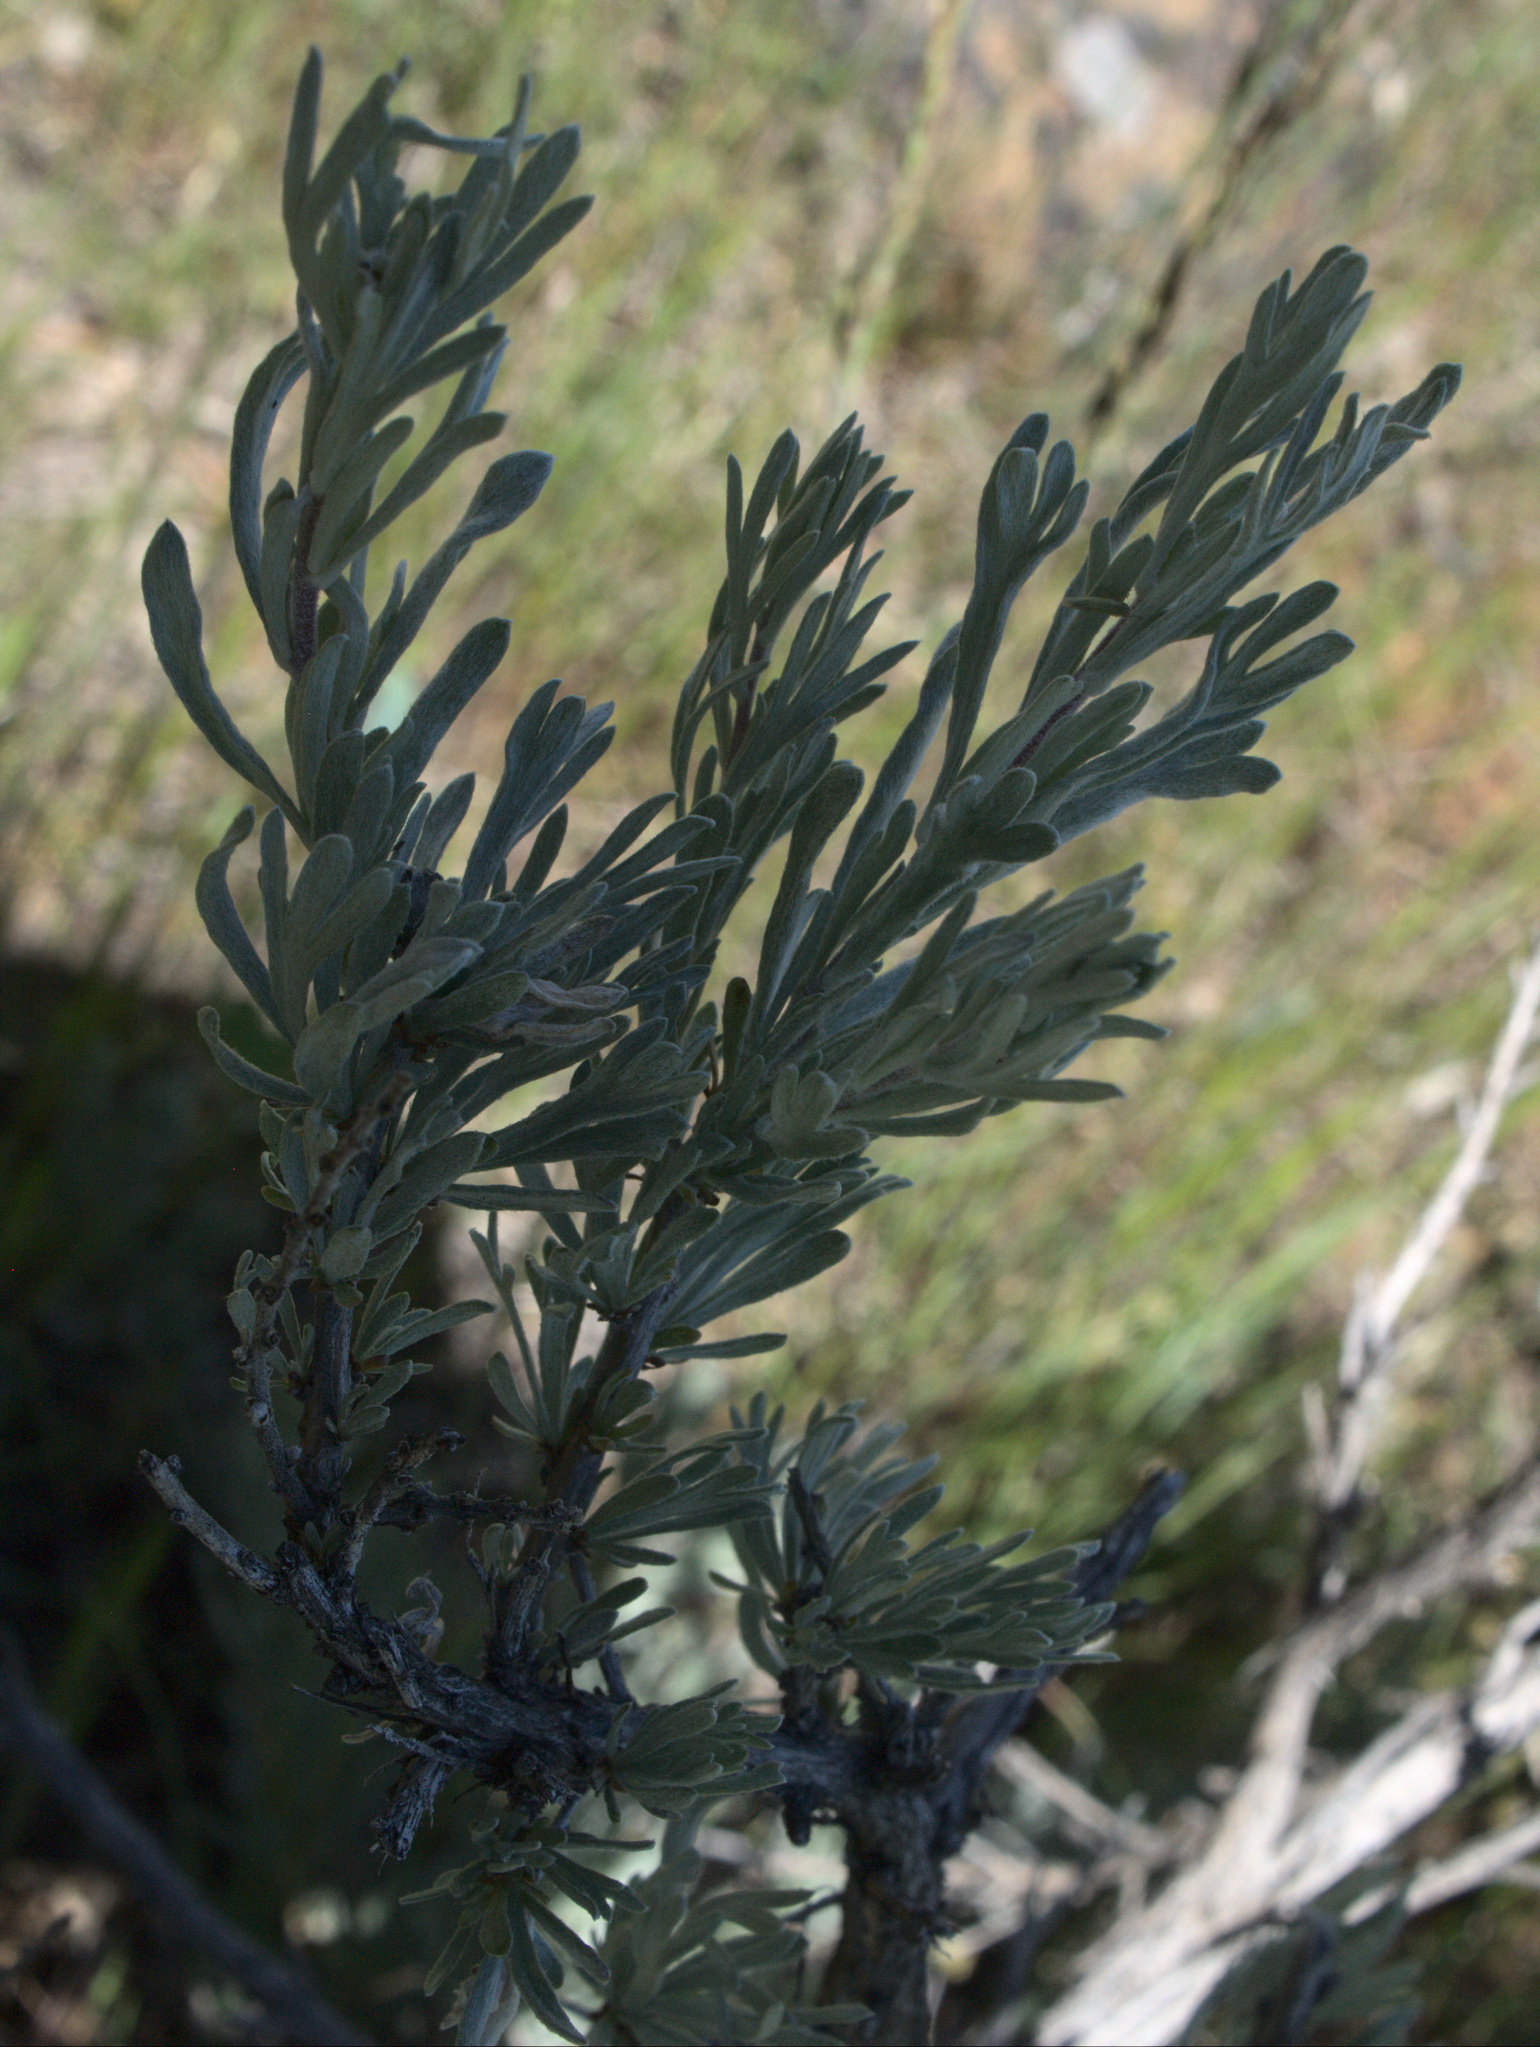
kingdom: Plantae
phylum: Tracheophyta
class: Magnoliopsida
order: Asterales
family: Asteraceae
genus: Artemisia
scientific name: Artemisia rigida
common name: Scabland sagebrush
